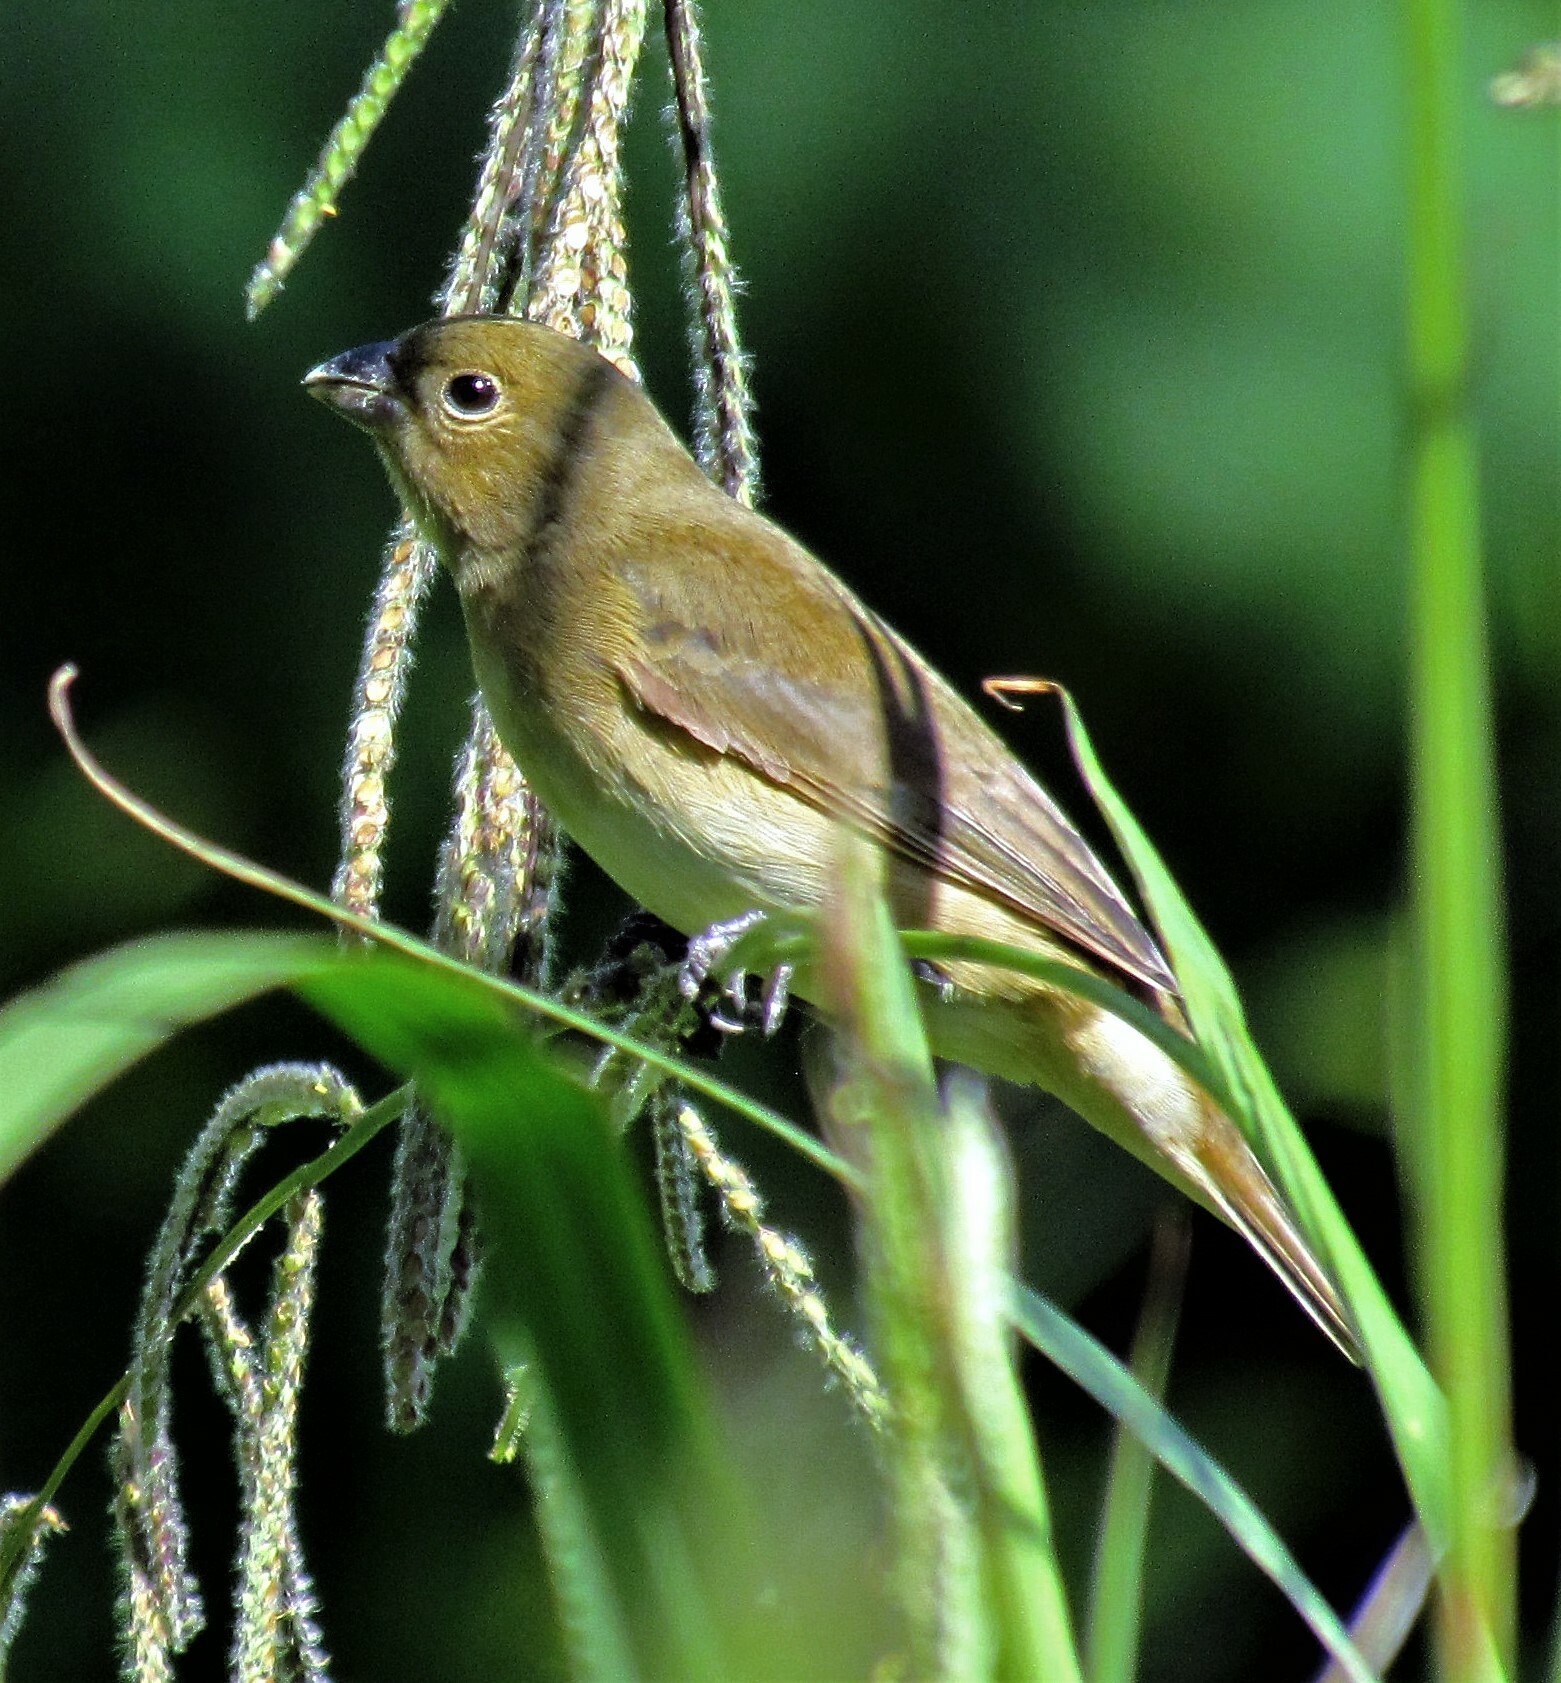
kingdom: Animalia
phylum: Chordata
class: Aves
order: Passeriformes
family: Thraupidae
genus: Sporophila
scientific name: Sporophila caerulescens
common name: Double-collared seedeater
